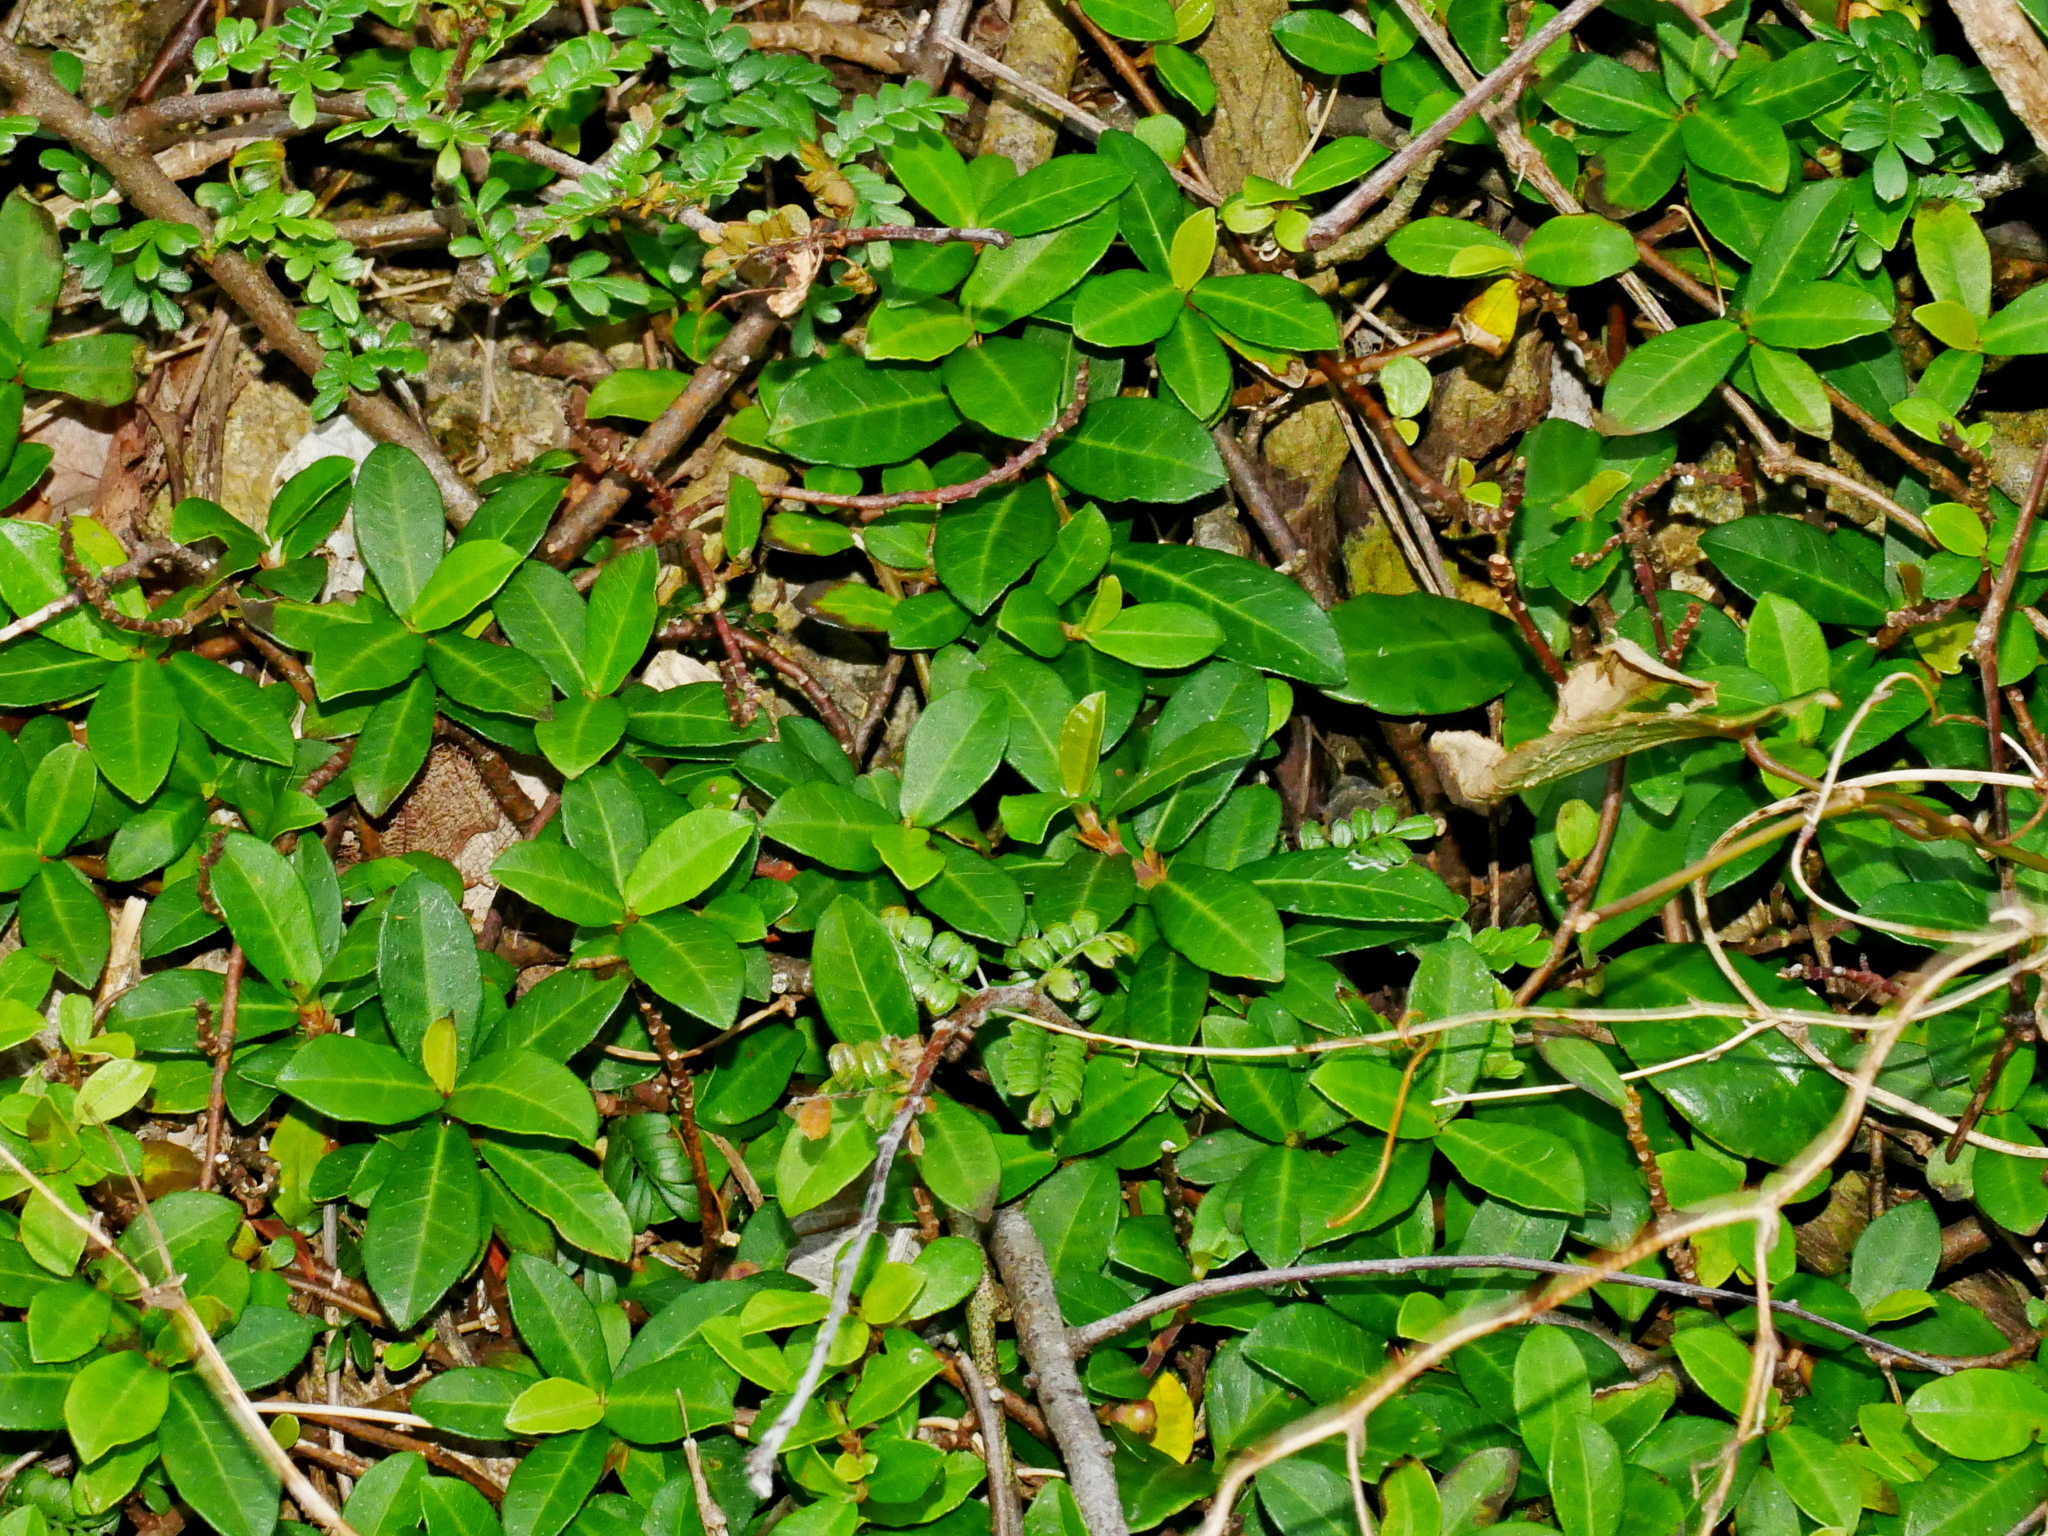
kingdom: Plantae
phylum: Tracheophyta
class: Magnoliopsida
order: Rosales
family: Moraceae
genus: Ficus
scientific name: Ficus vaccinioides
